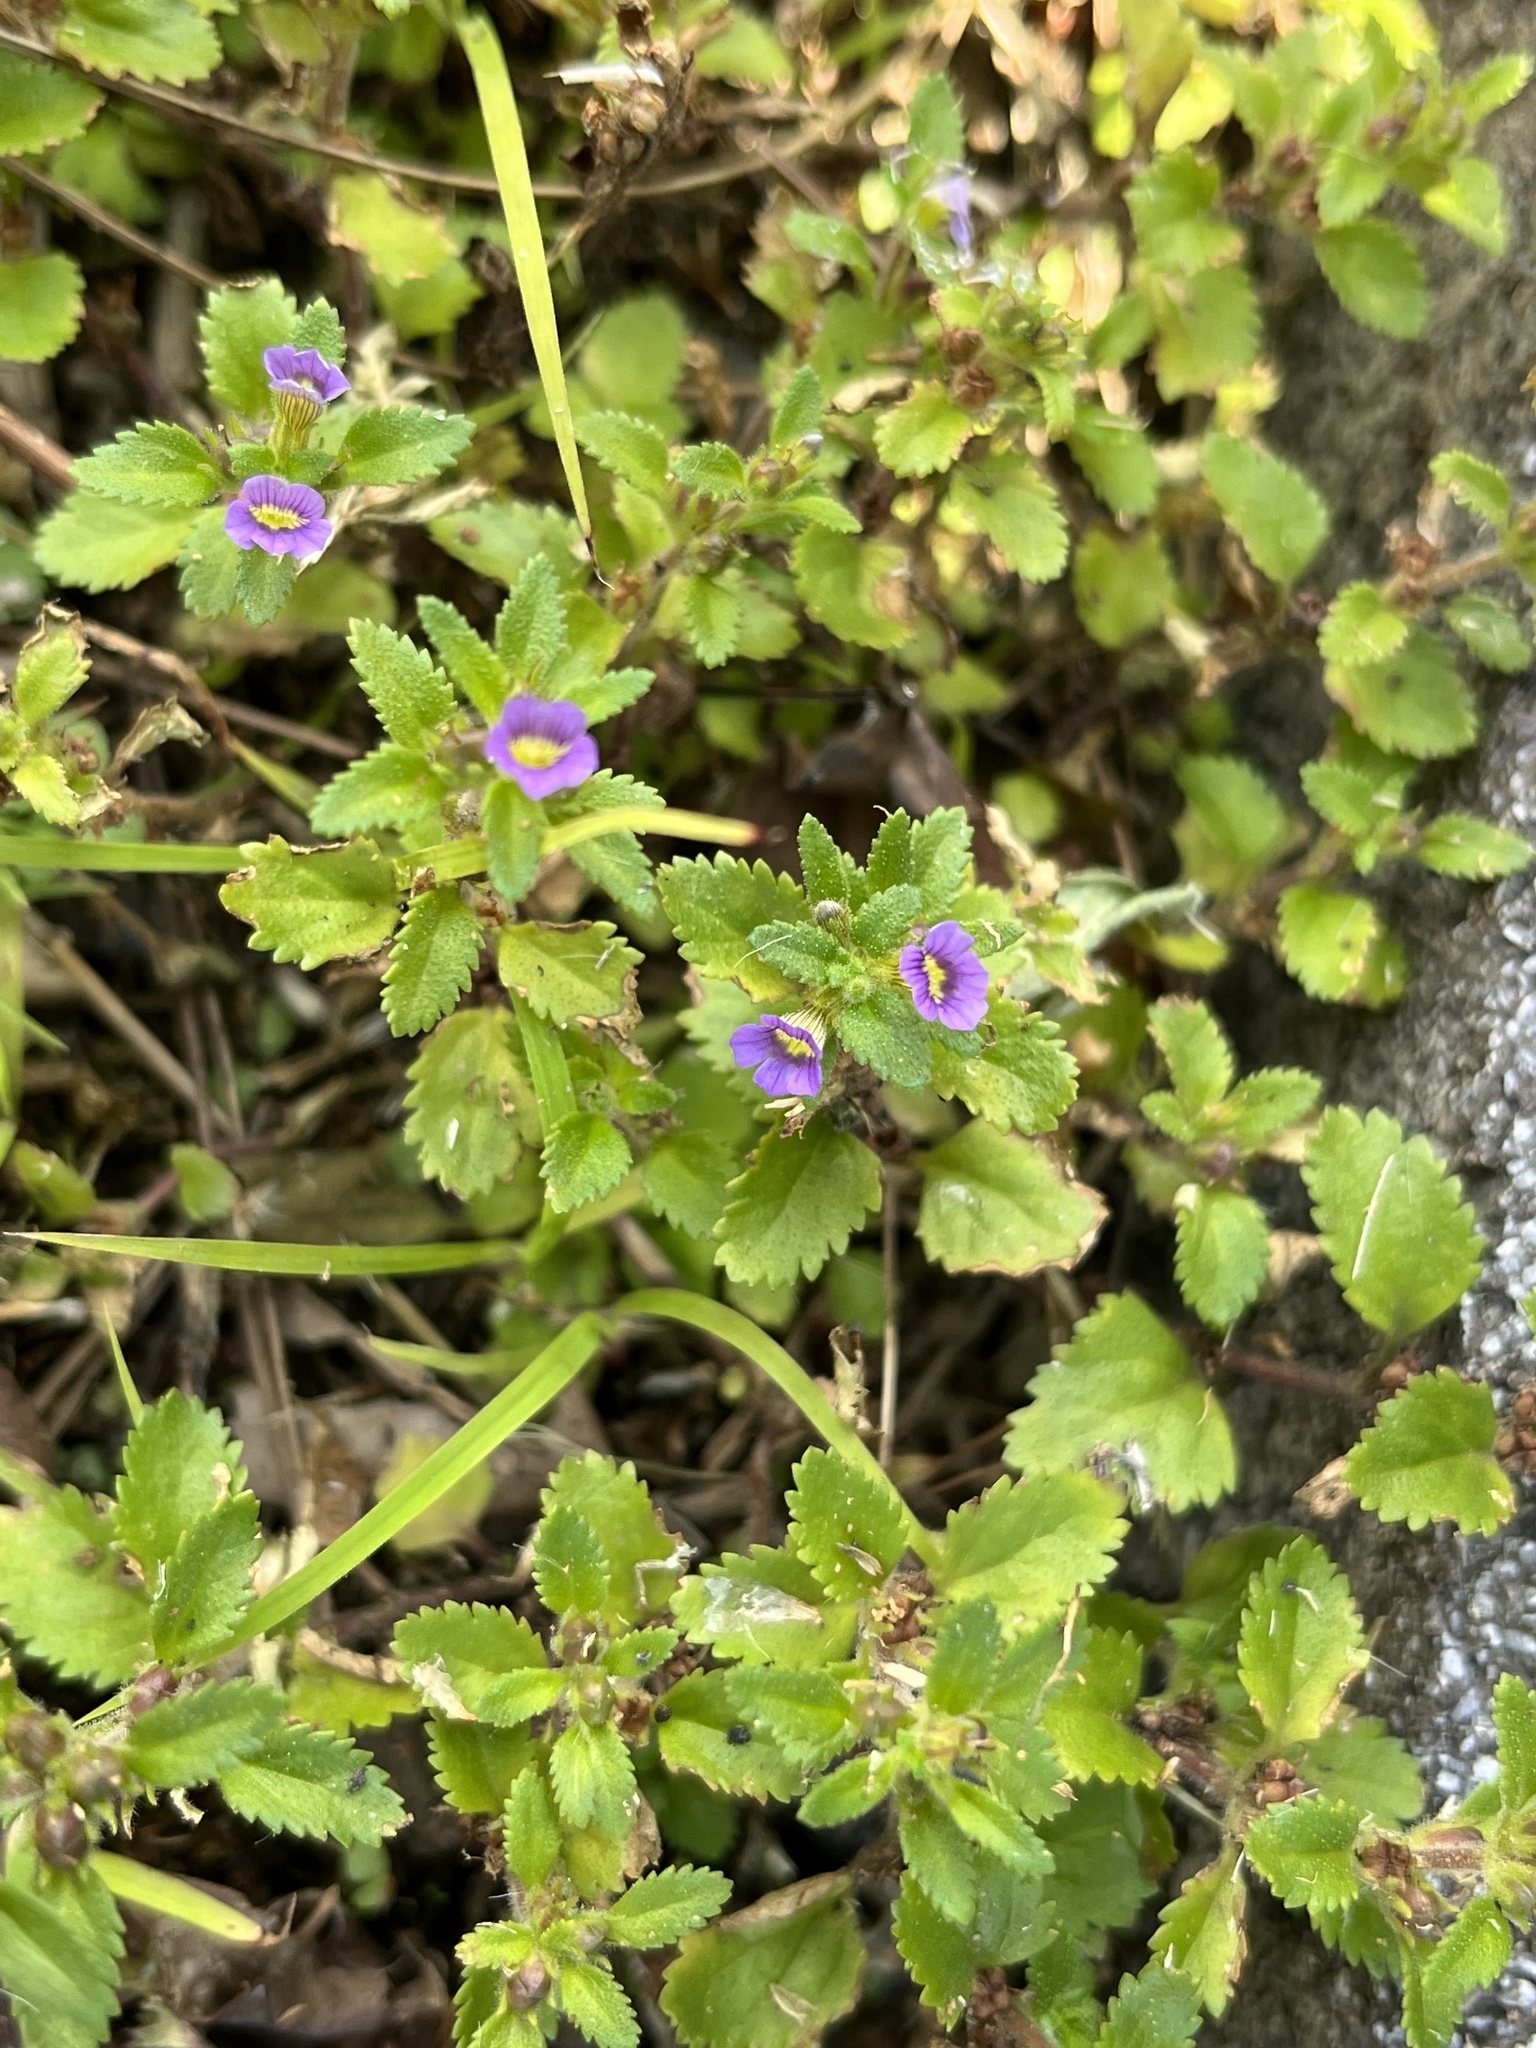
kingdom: Plantae
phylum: Tracheophyta
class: Magnoliopsida
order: Lamiales
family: Plantaginaceae
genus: Stemodia
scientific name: Stemodia verticillata
